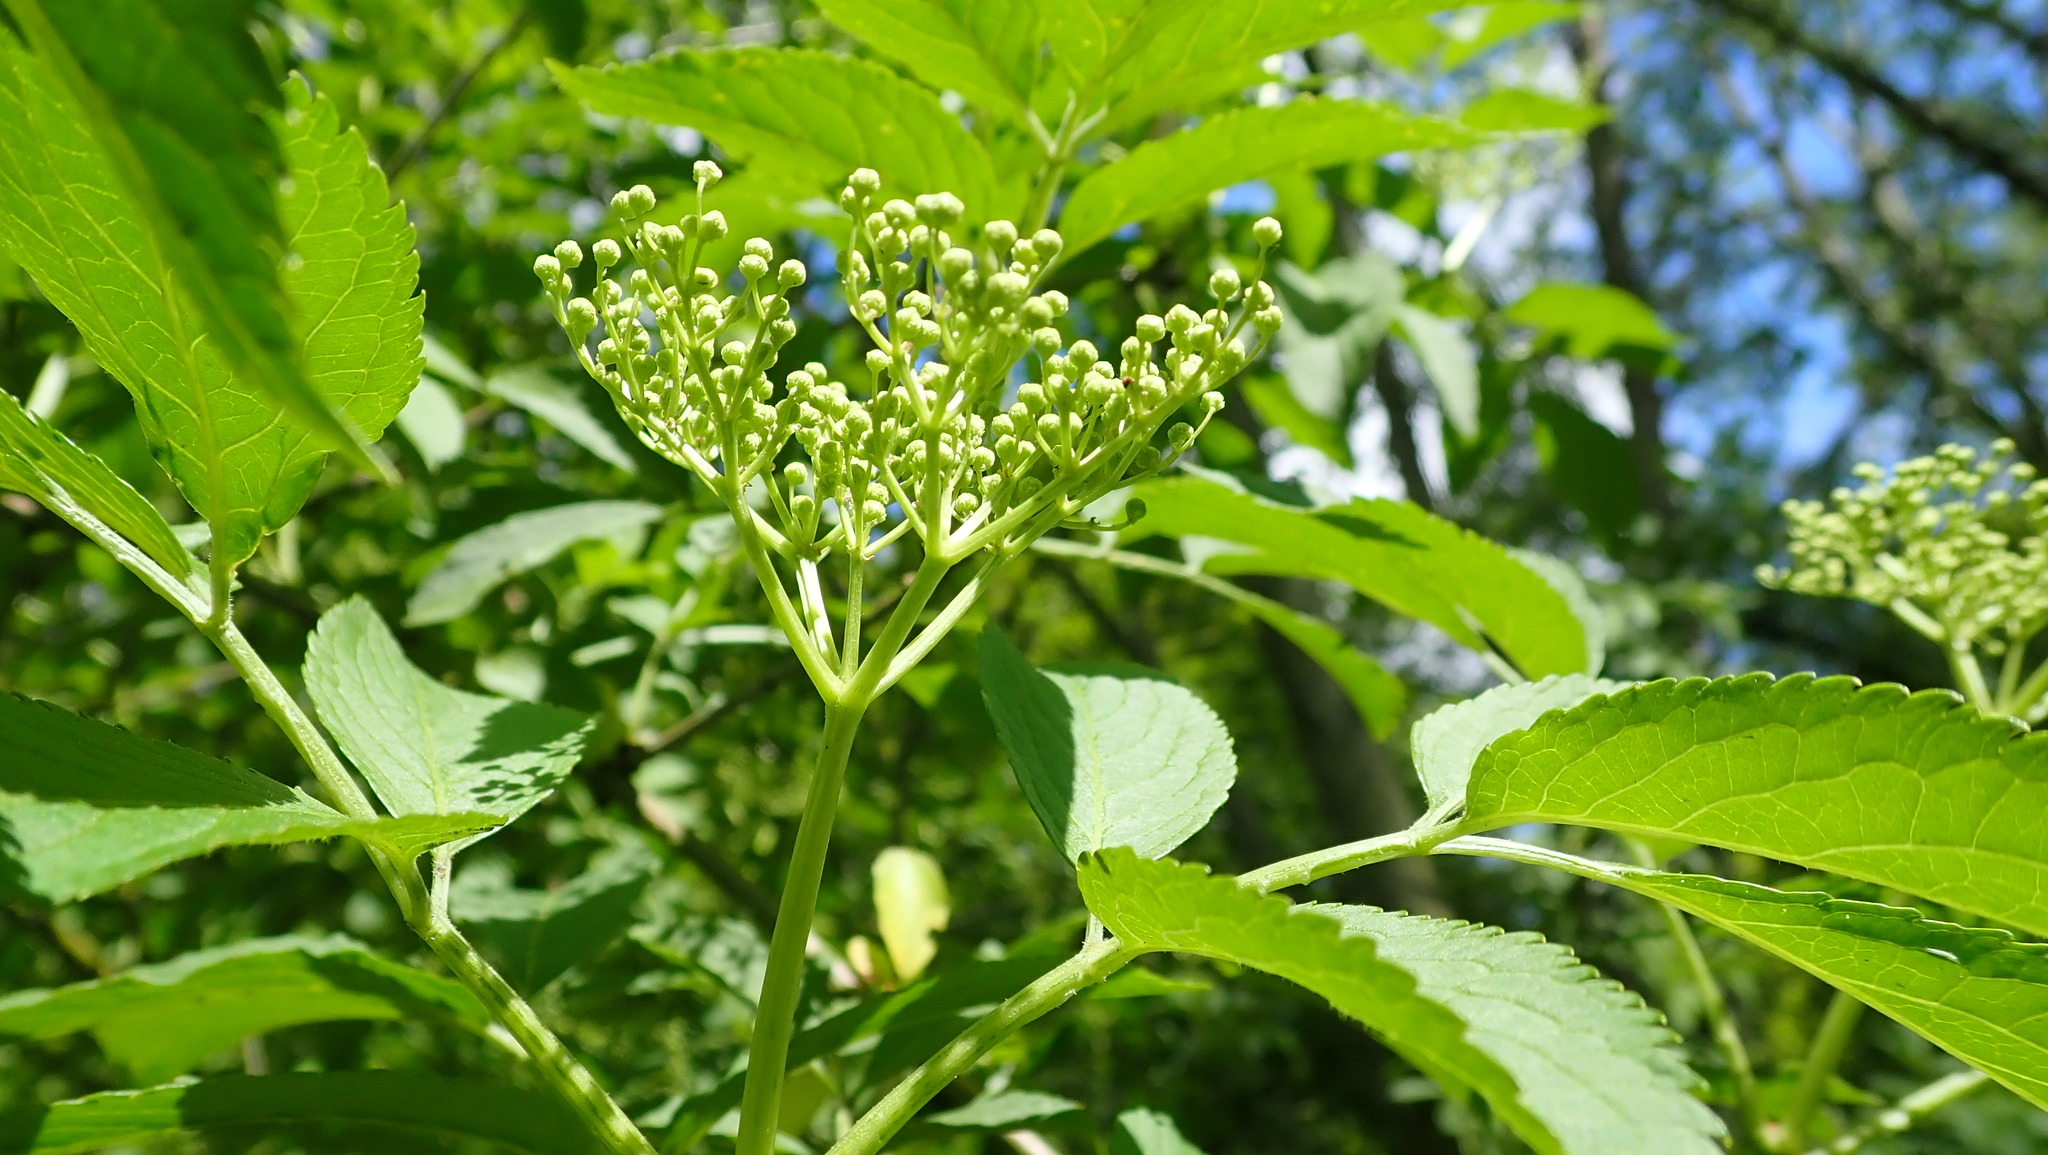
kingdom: Plantae
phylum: Tracheophyta
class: Magnoliopsida
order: Dipsacales
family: Viburnaceae
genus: Sambucus
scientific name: Sambucus nigra
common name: Elder
